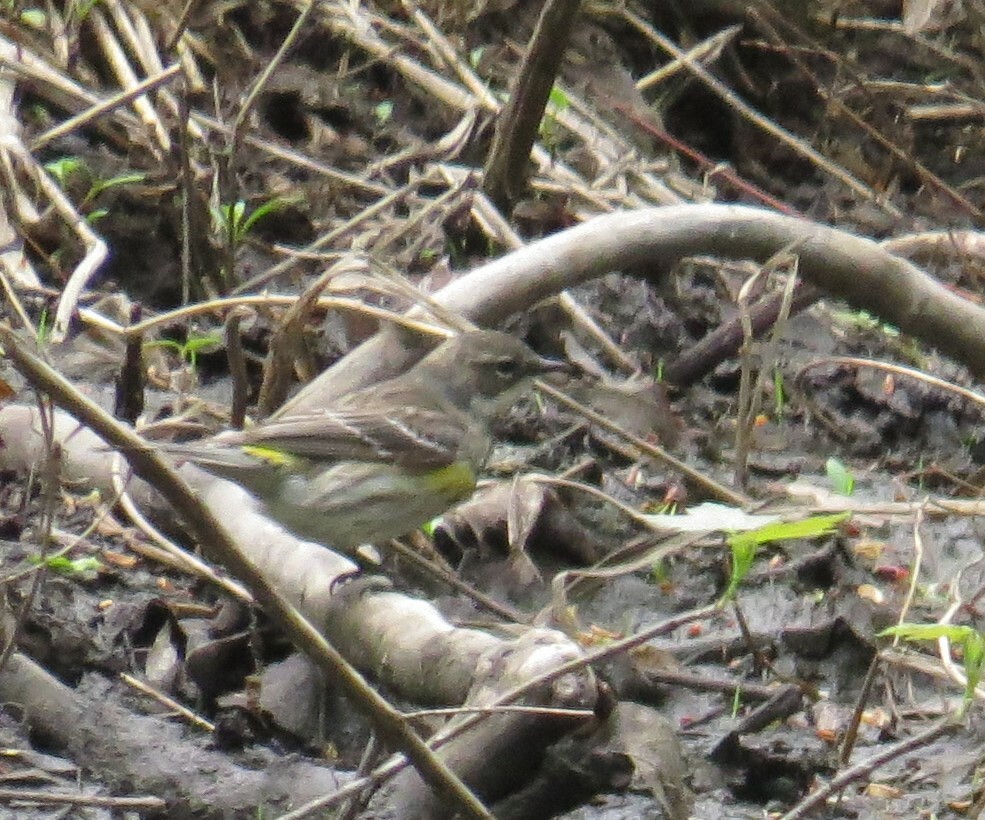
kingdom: Animalia
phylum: Chordata
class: Aves
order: Passeriformes
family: Parulidae
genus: Setophaga
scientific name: Setophaga coronata
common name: Myrtle warbler
